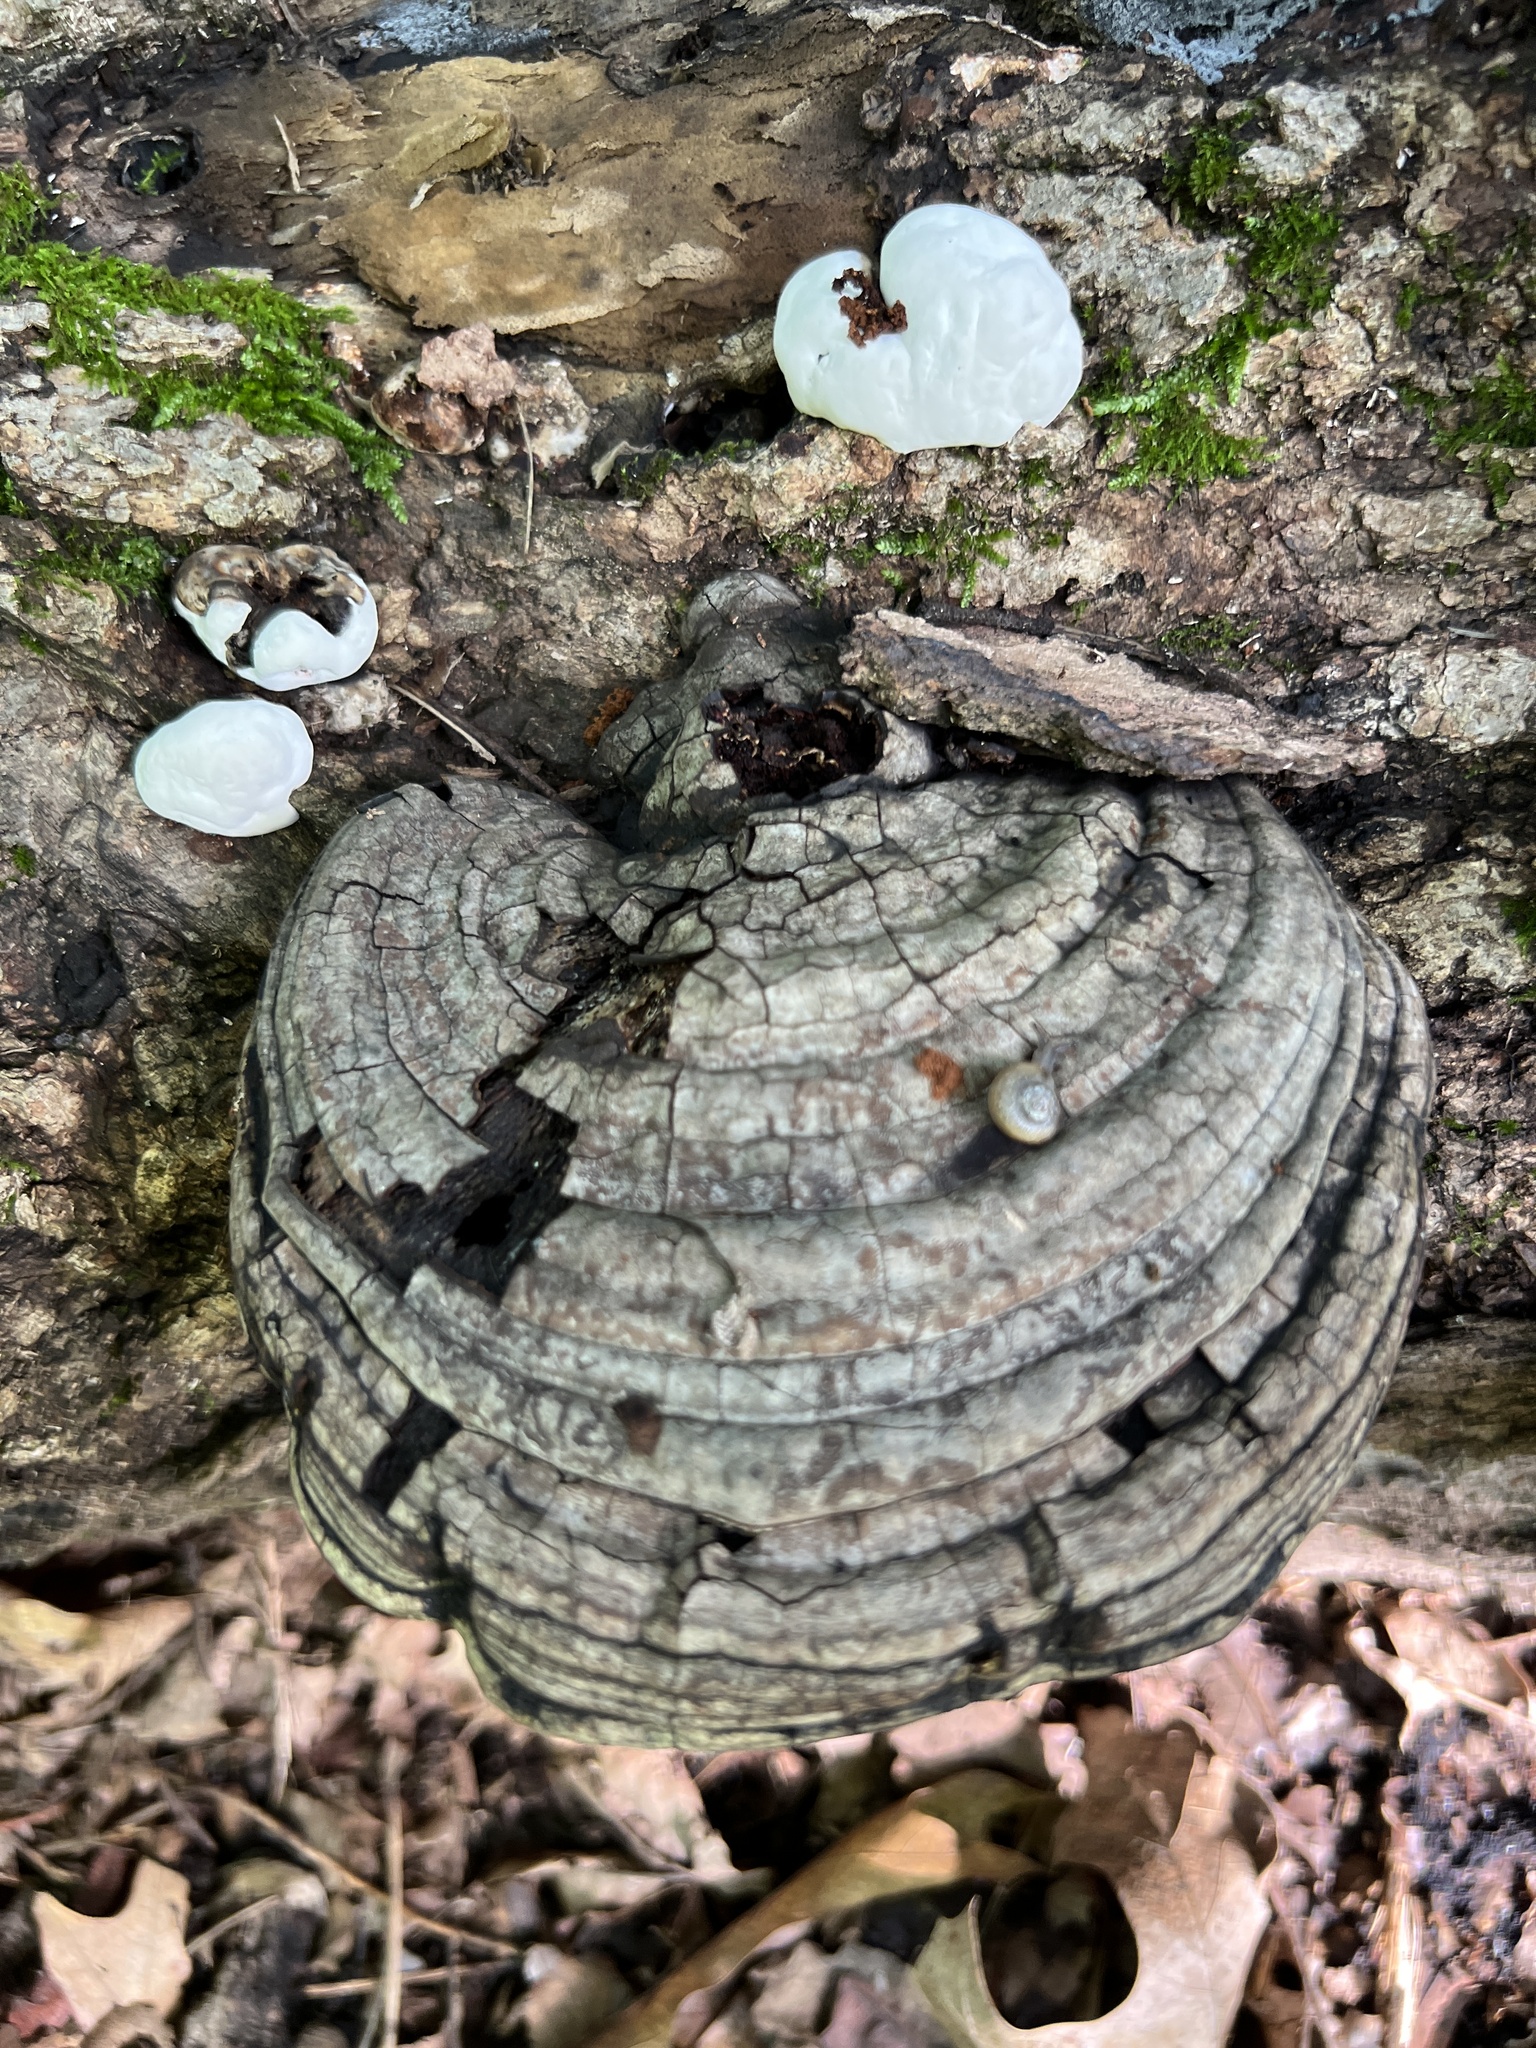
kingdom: Fungi
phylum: Basidiomycota
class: Agaricomycetes
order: Polyporales
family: Polyporaceae
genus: Ganoderma
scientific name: Ganoderma applanatum
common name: Artist's bracket
